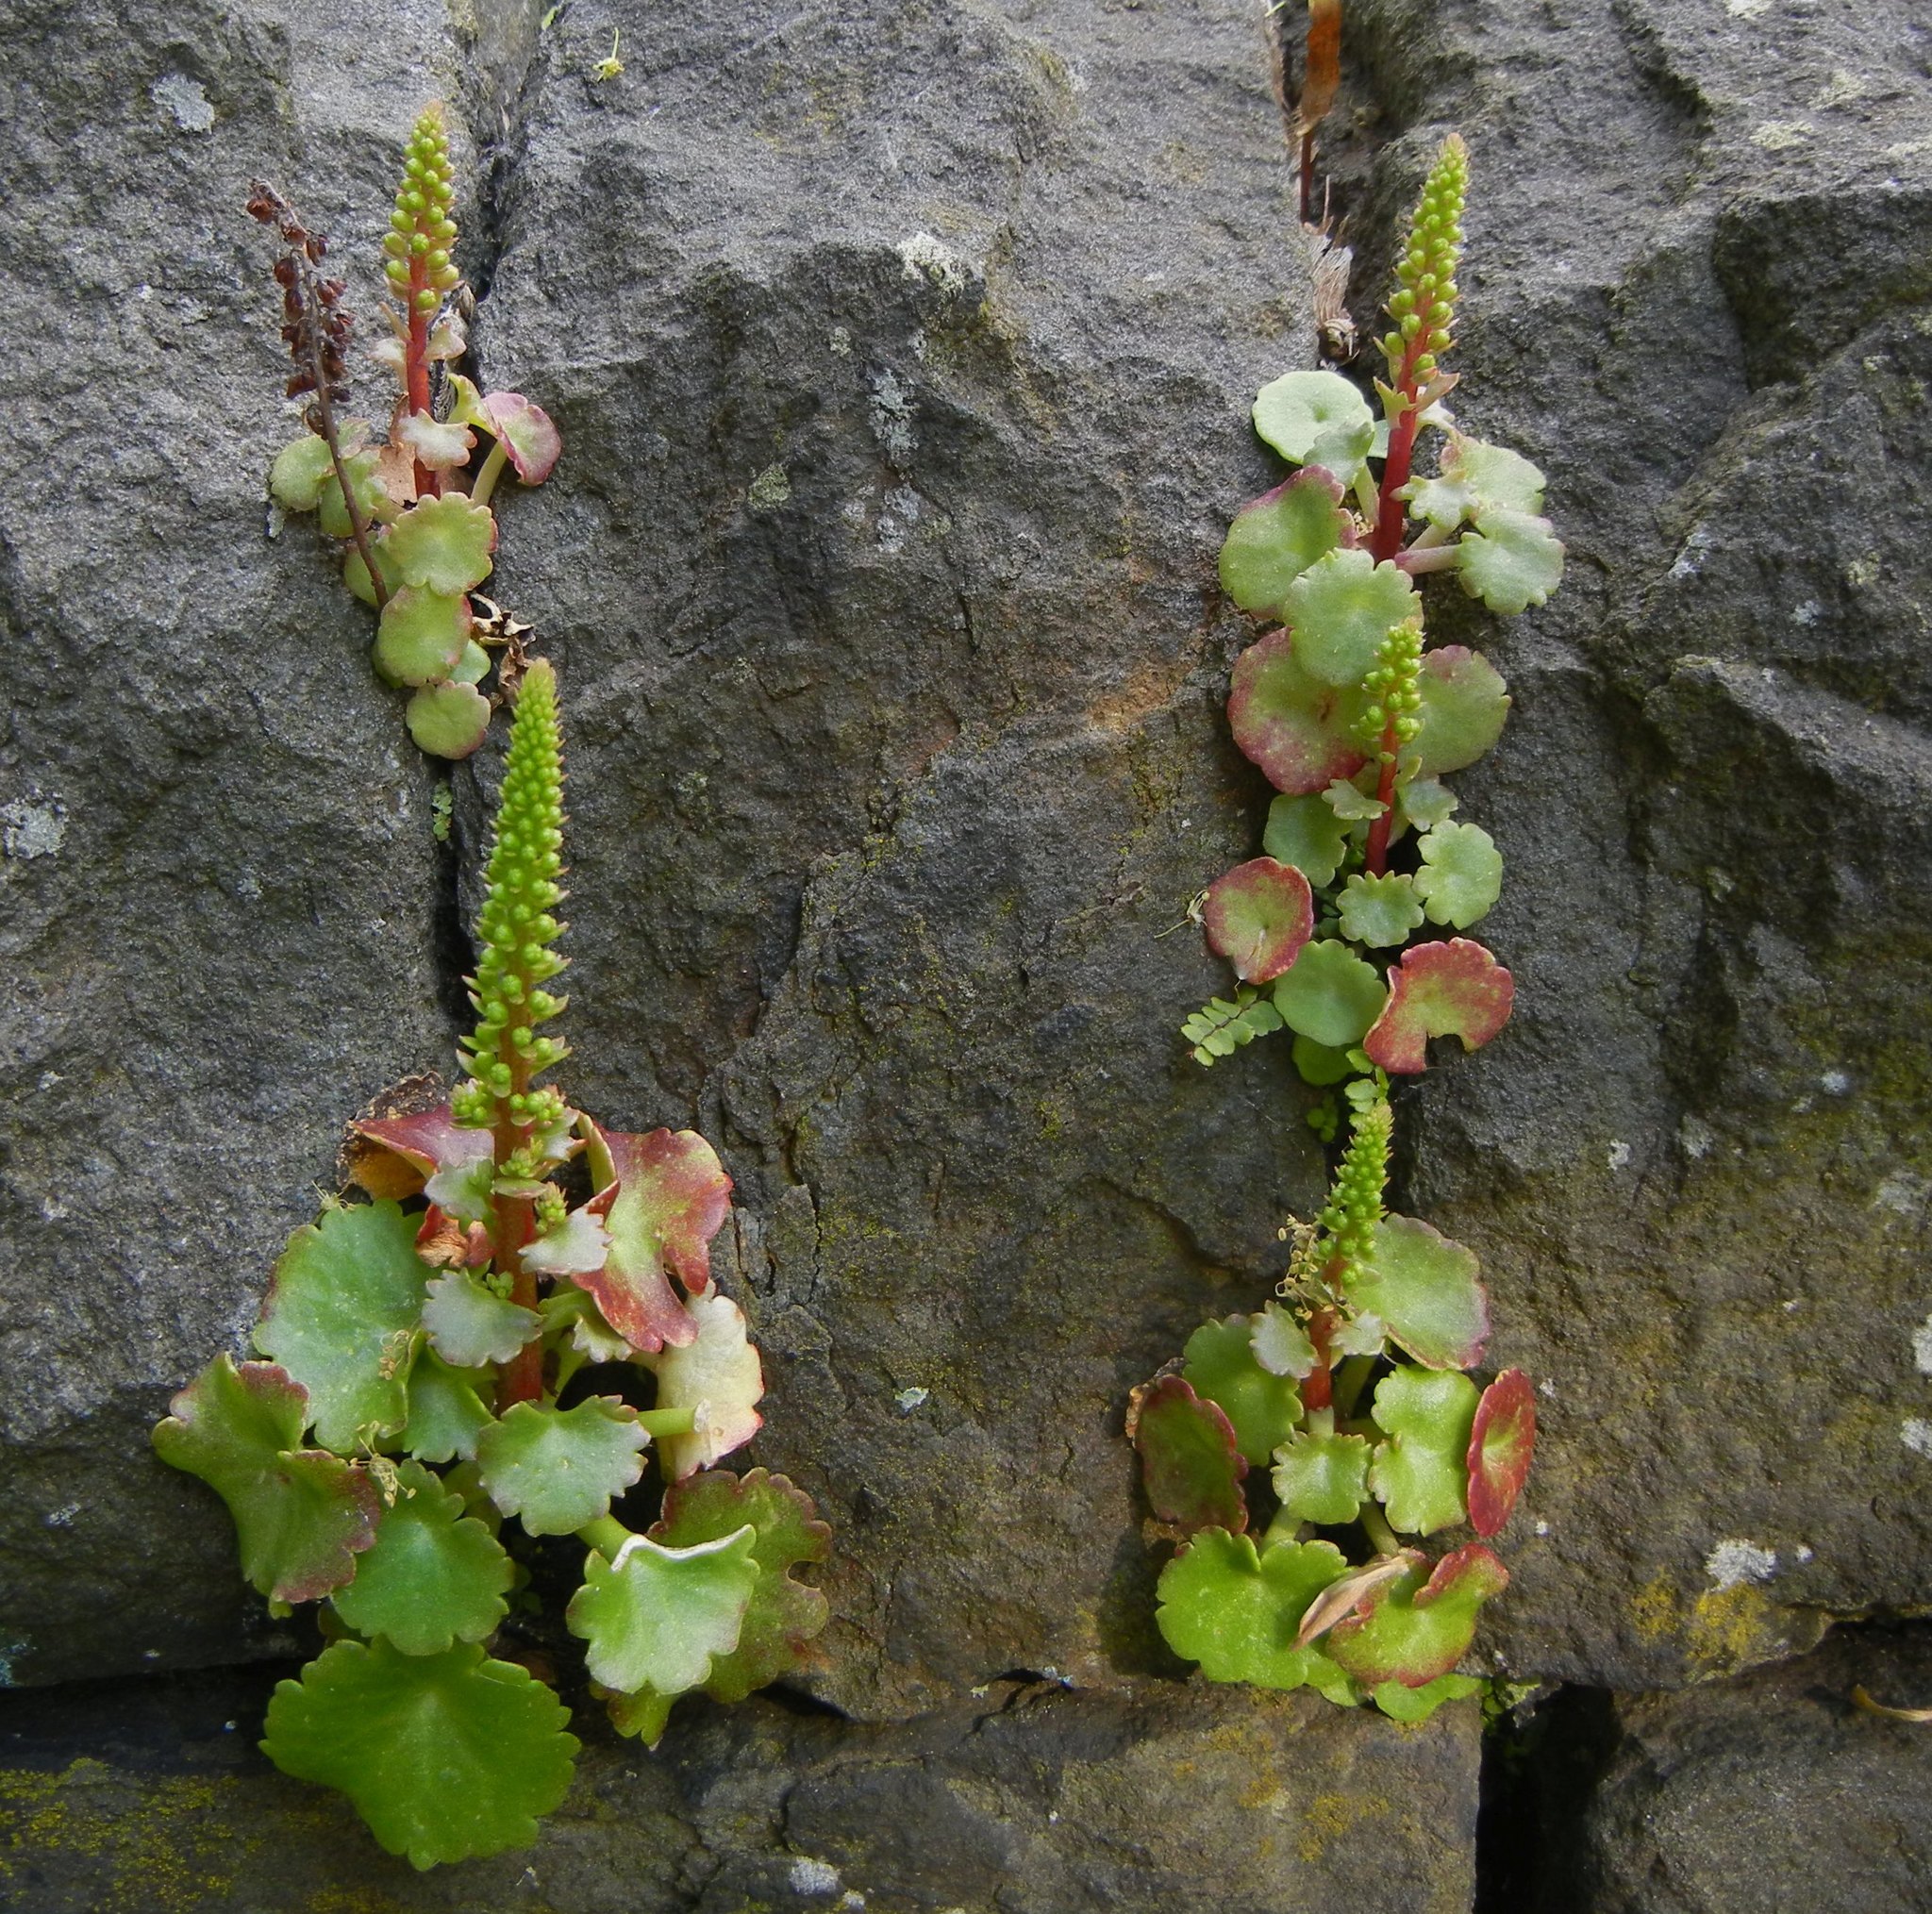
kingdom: Plantae
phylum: Tracheophyta
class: Magnoliopsida
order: Saxifragales
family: Crassulaceae
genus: Umbilicus
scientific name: Umbilicus rupestris
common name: Navelwort
